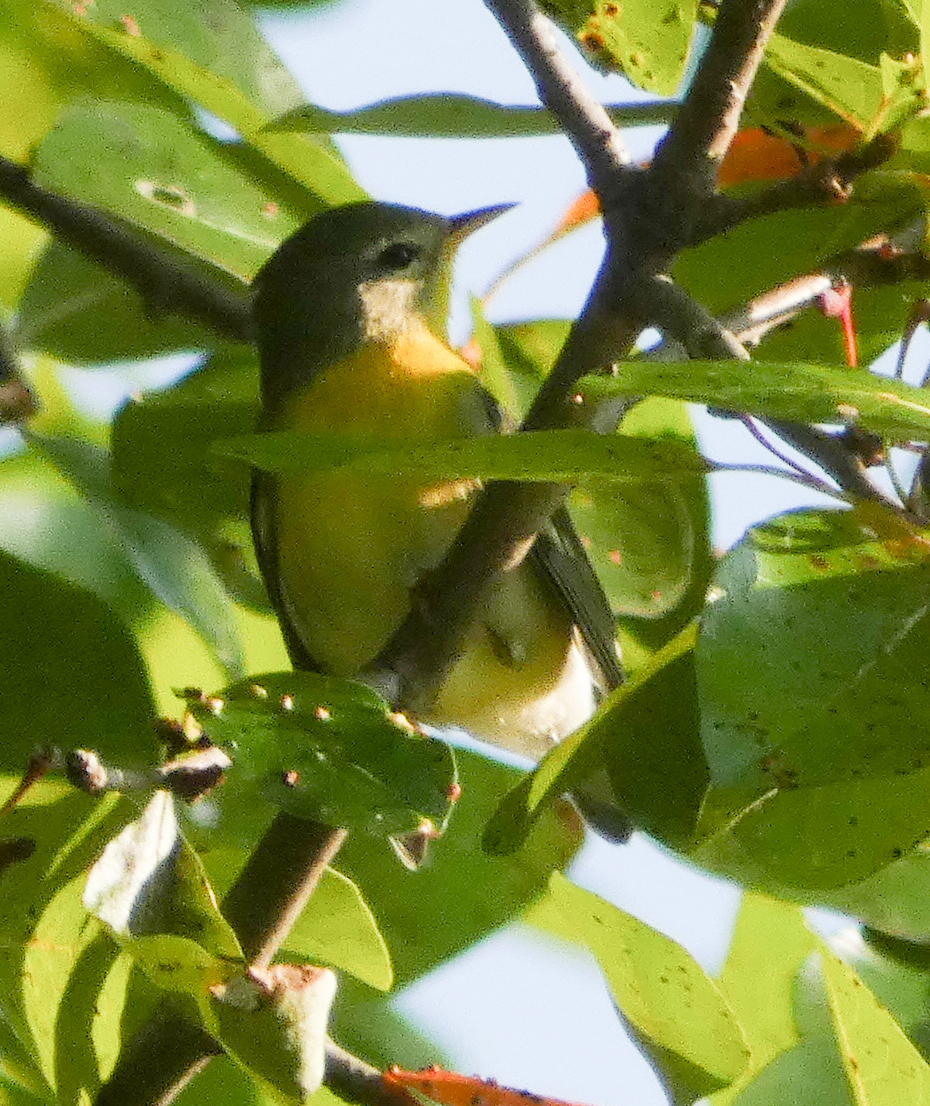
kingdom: Animalia
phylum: Chordata
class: Aves
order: Passeriformes
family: Parulidae
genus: Setophaga
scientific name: Setophaga americana
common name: Northern parula
